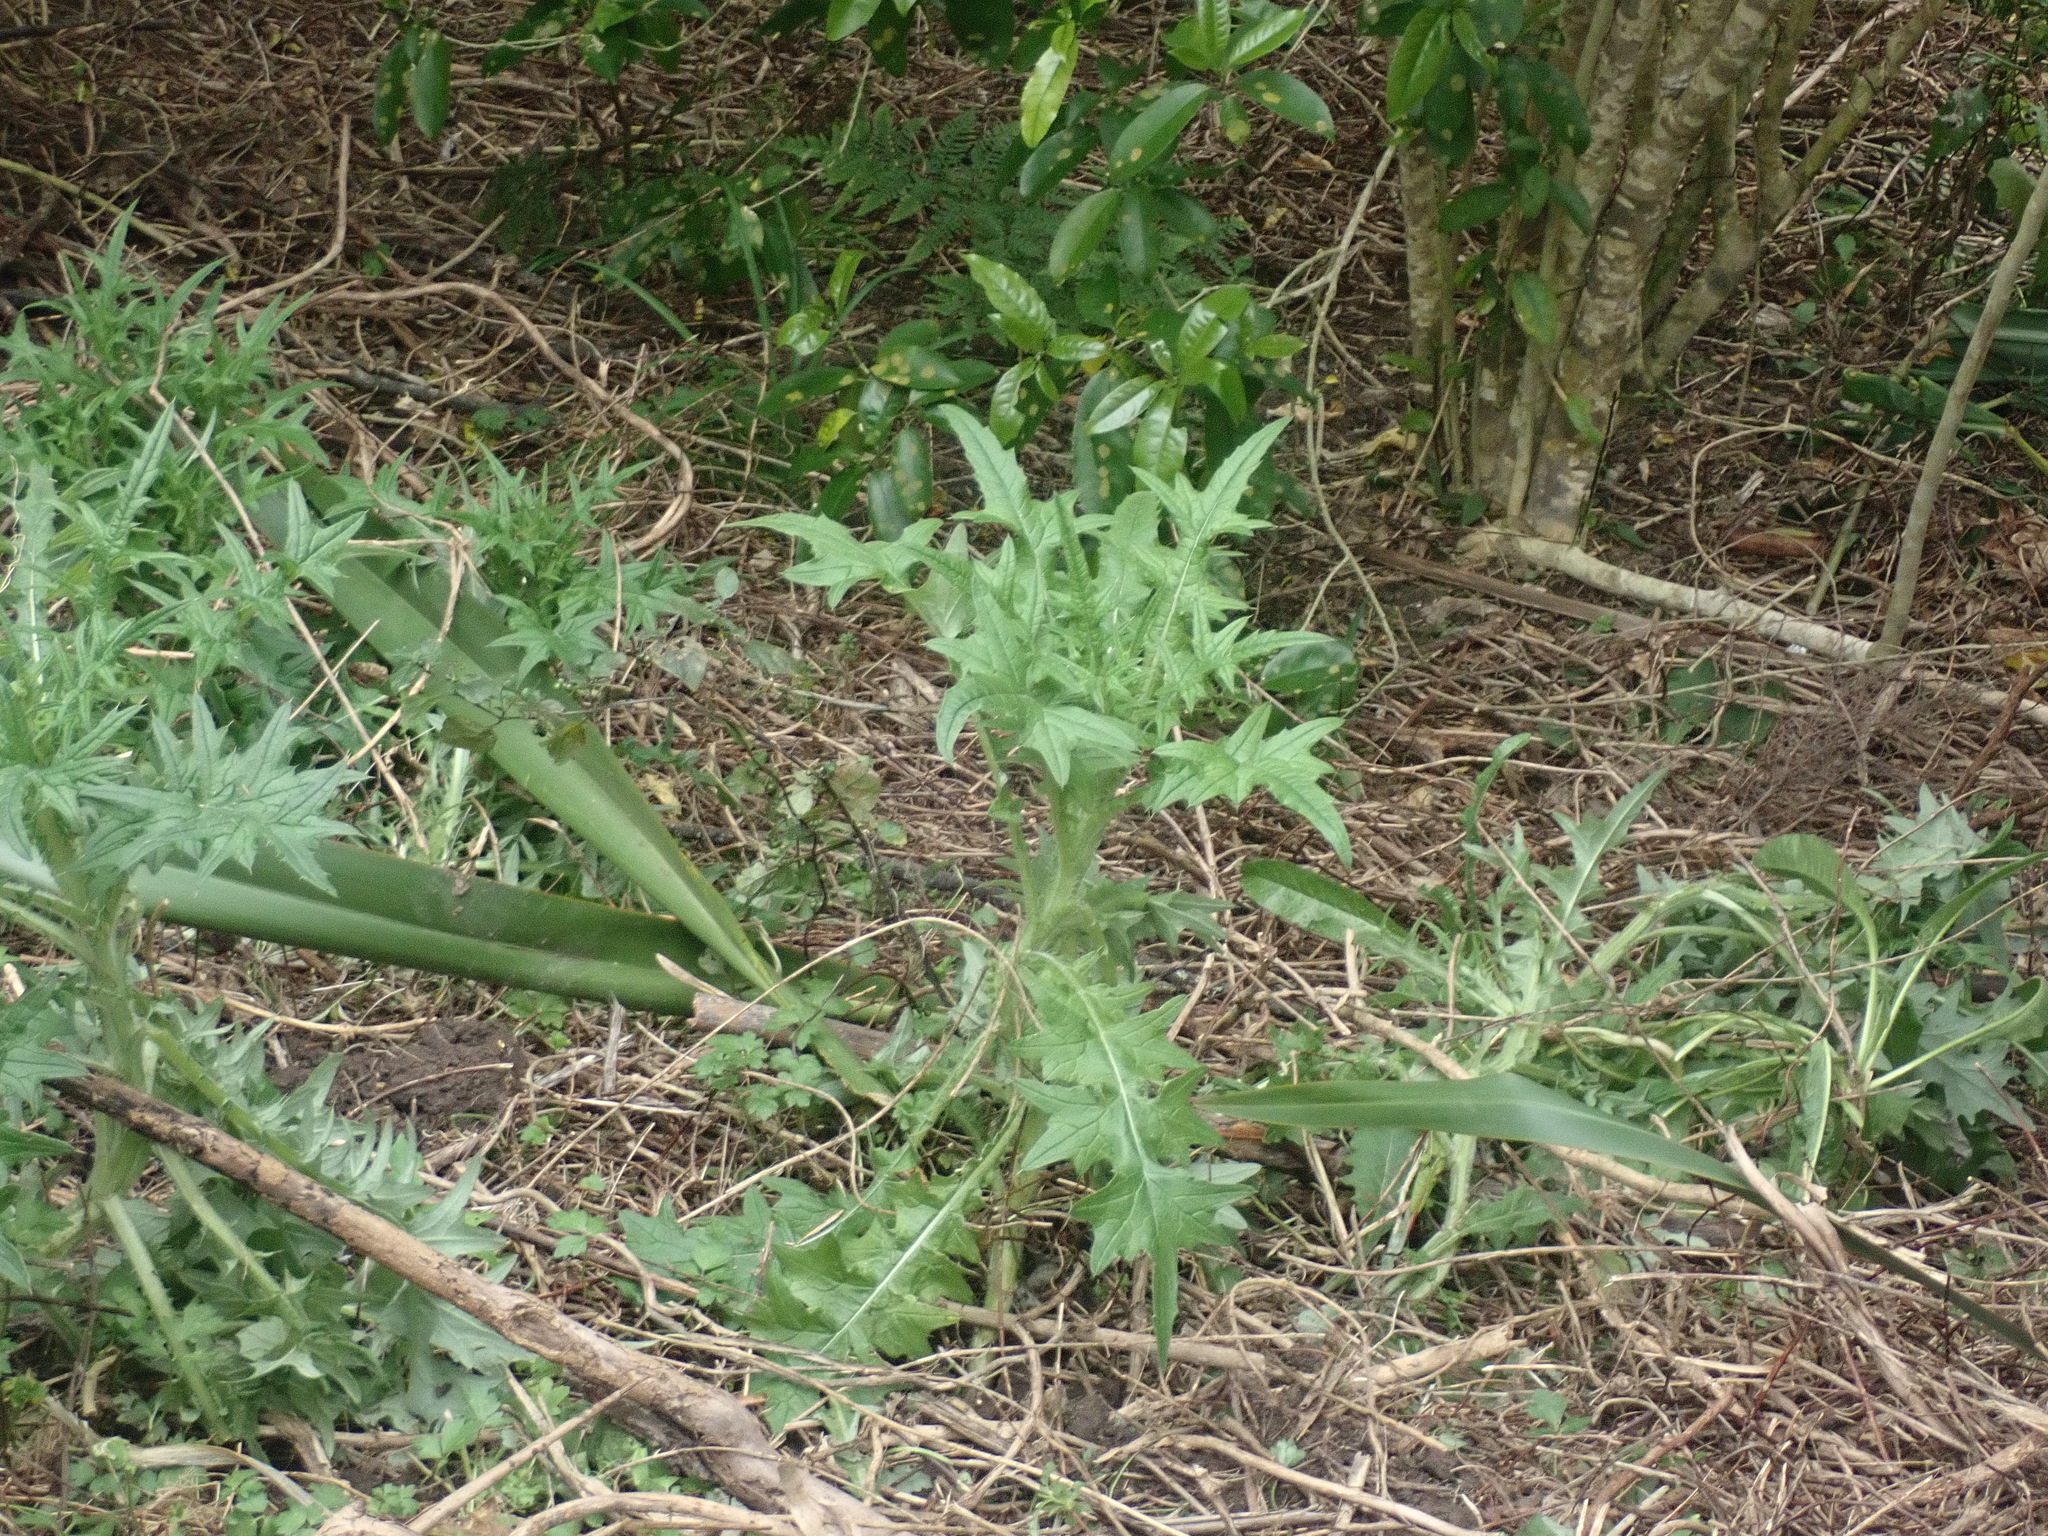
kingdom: Plantae
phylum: Tracheophyta
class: Magnoliopsida
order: Asterales
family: Asteraceae
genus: Cirsium
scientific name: Cirsium vulgare
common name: Bull thistle
